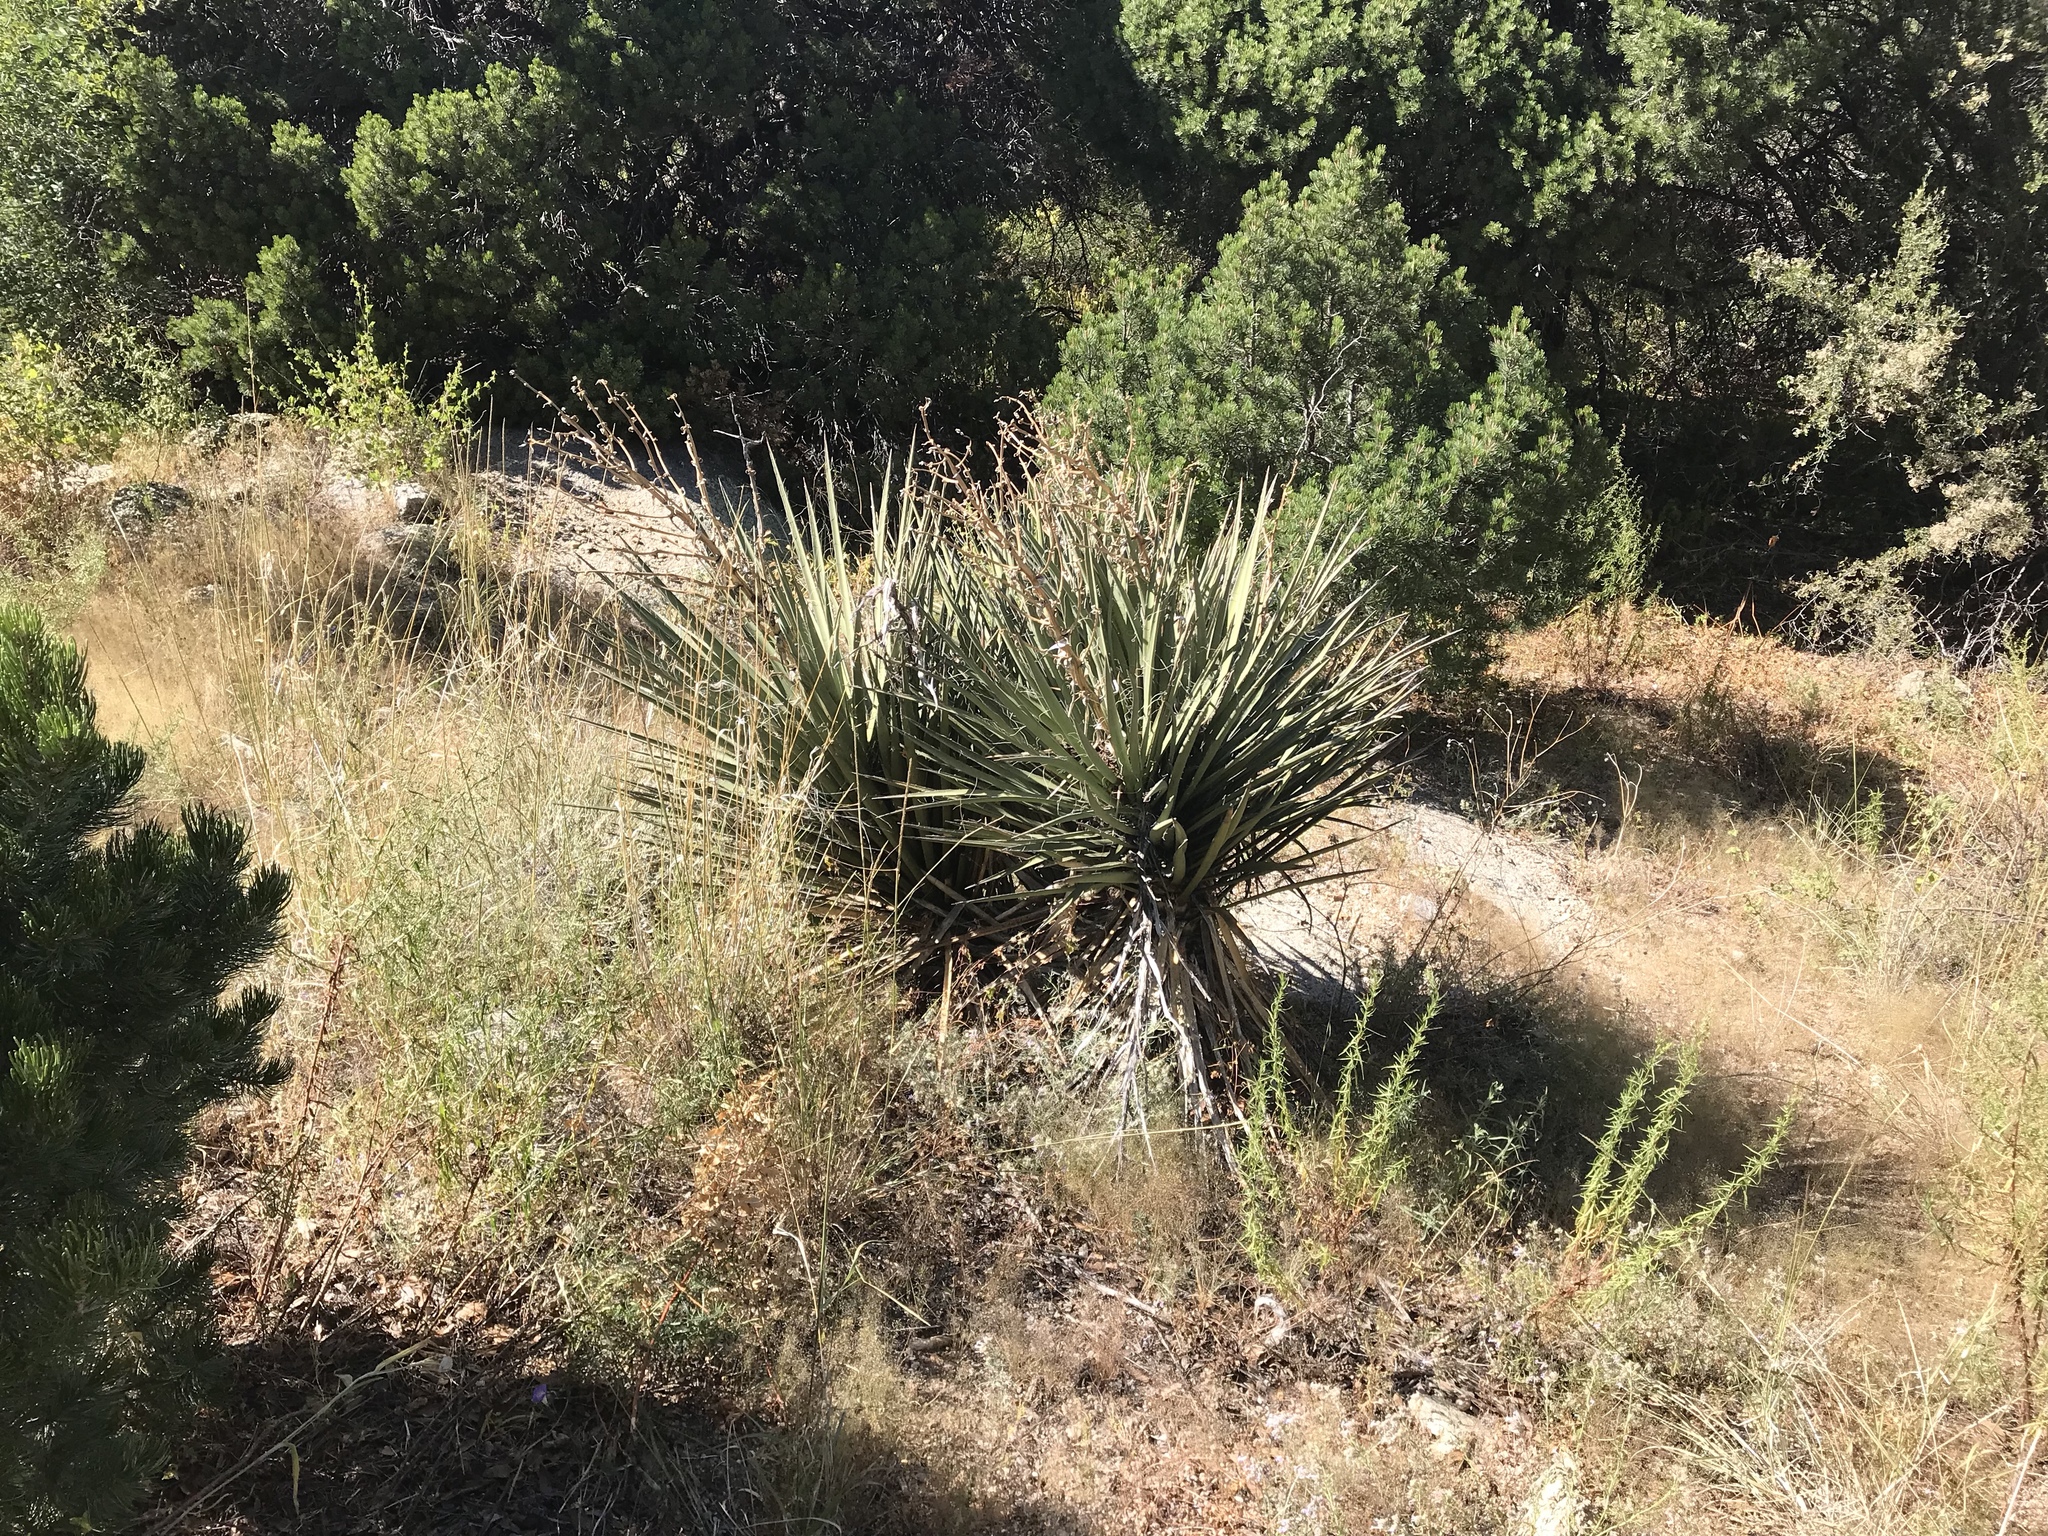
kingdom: Plantae
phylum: Tracheophyta
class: Liliopsida
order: Asparagales
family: Asparagaceae
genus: Yucca
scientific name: Yucca baccata
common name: Banana yucca
